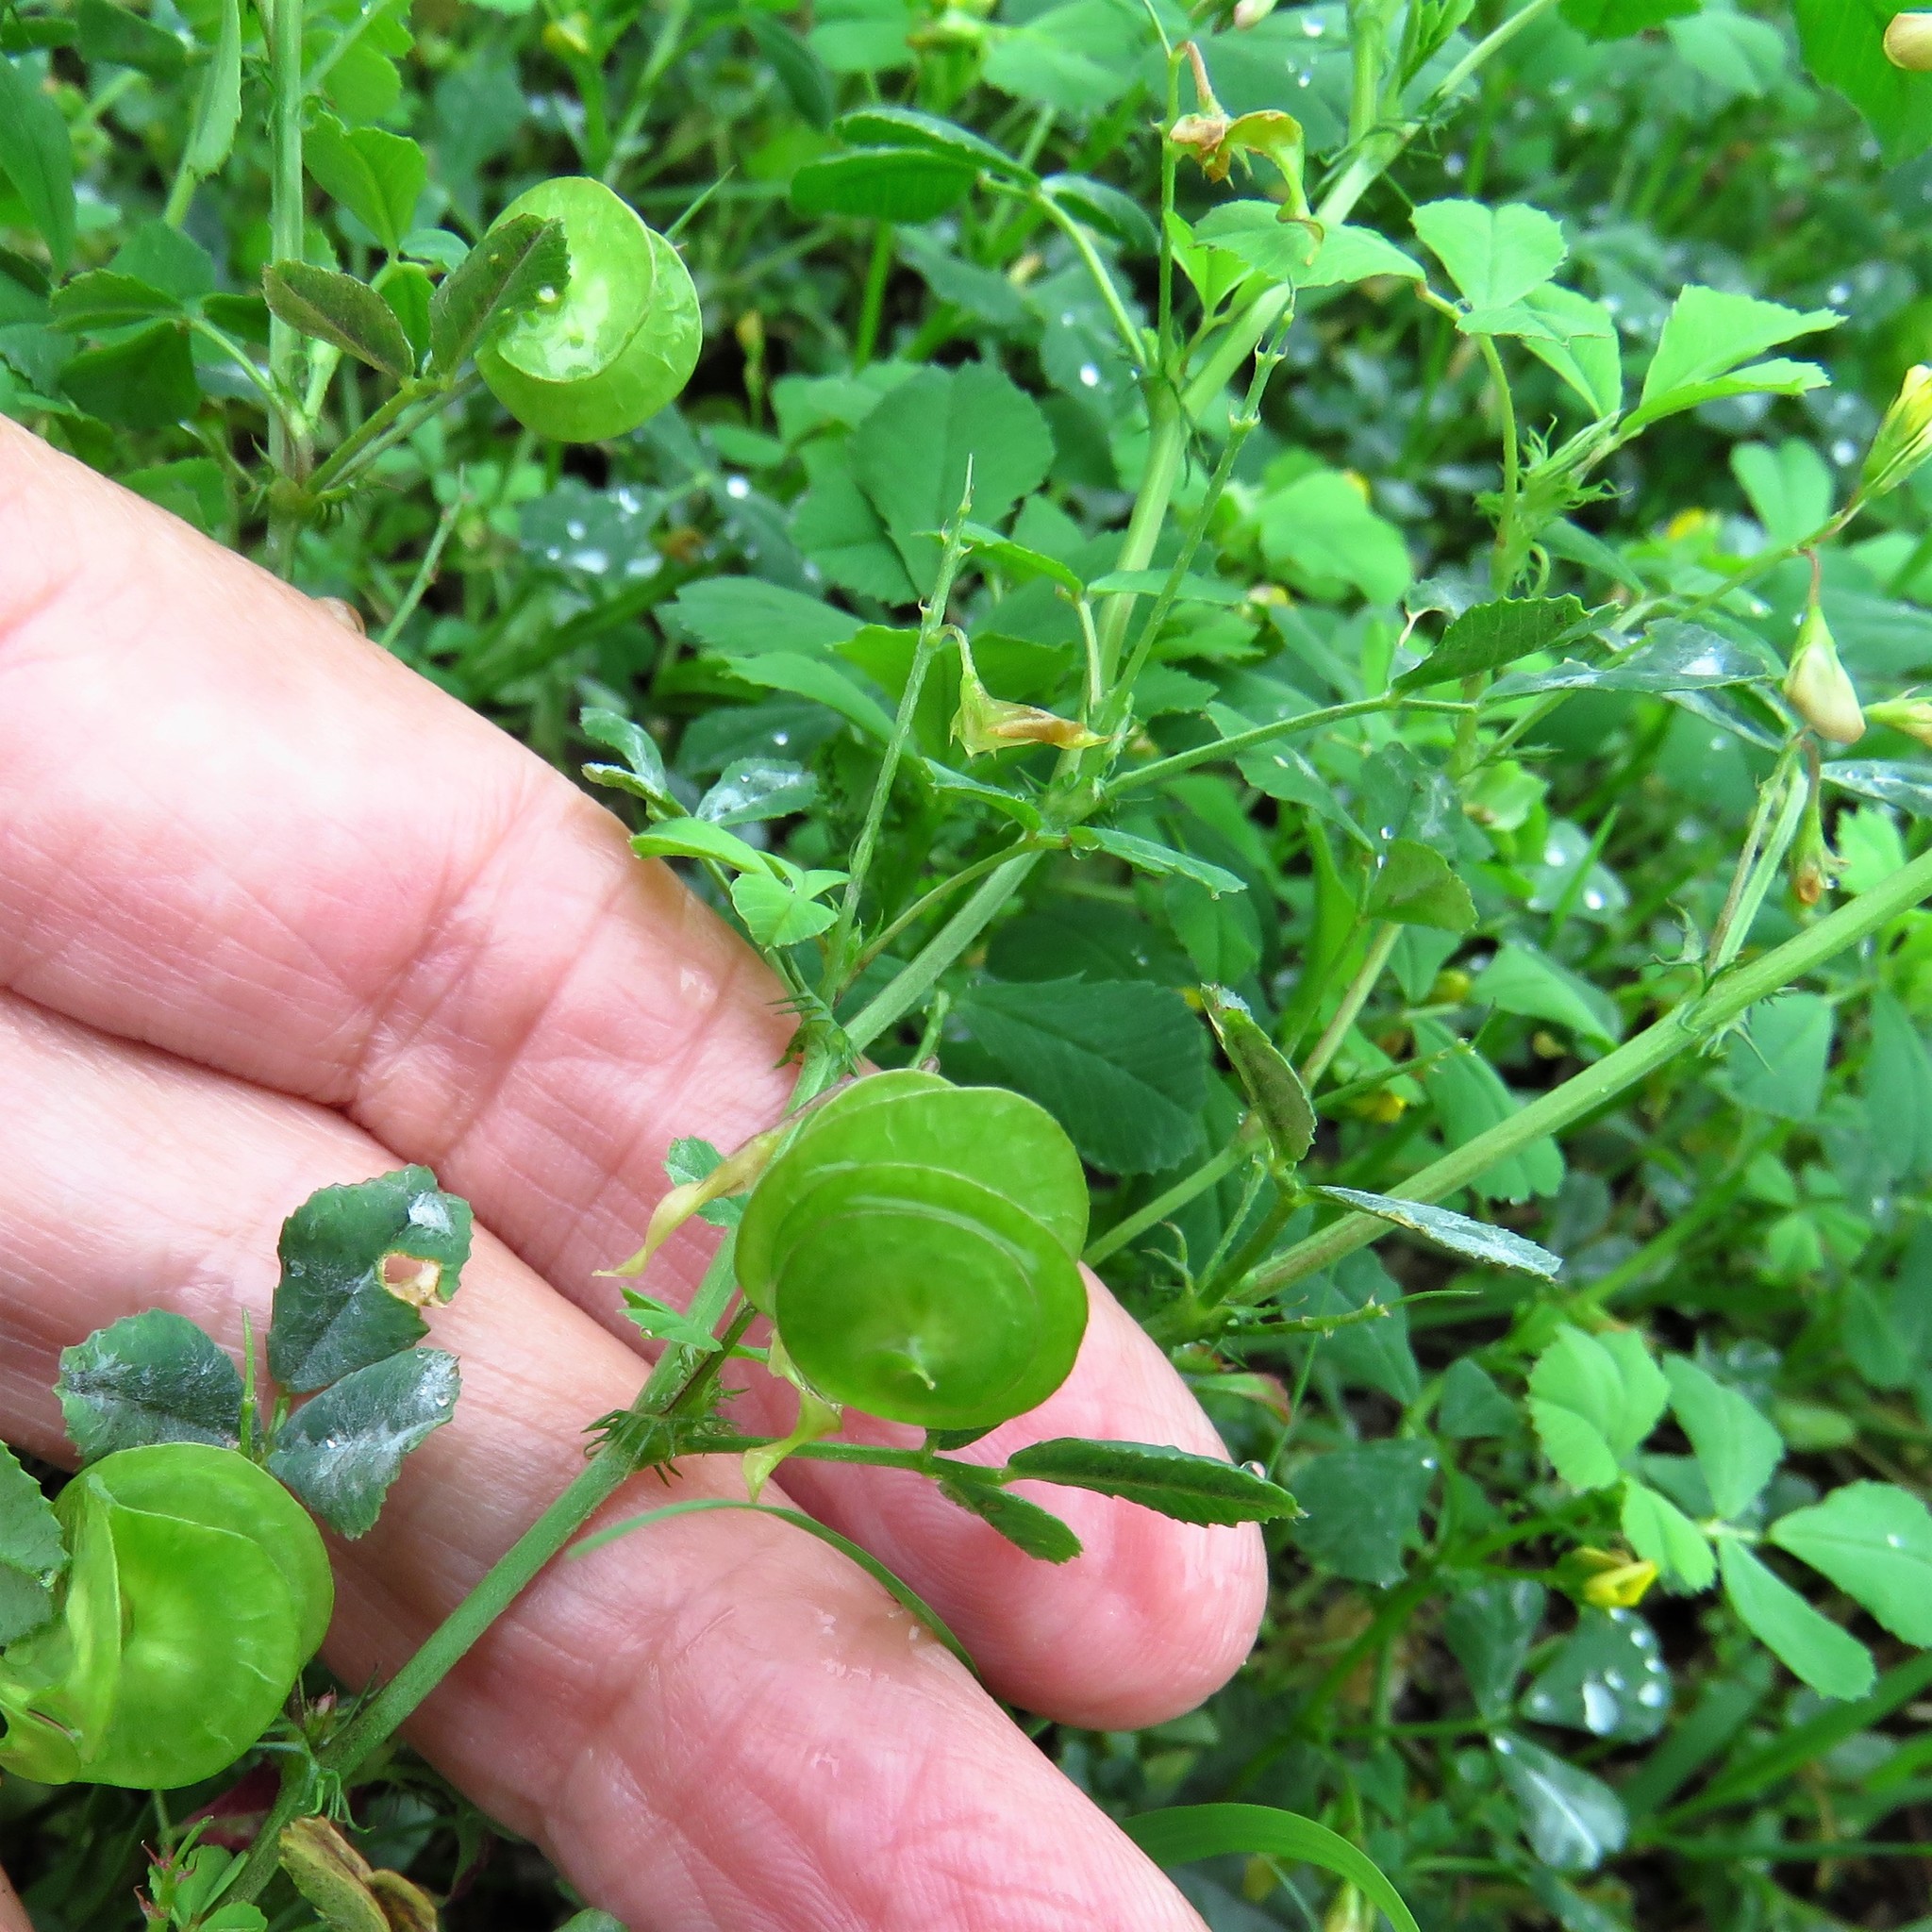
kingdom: Plantae
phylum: Tracheophyta
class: Magnoliopsida
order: Fabales
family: Fabaceae
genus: Medicago
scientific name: Medicago orbicularis
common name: Button medick
